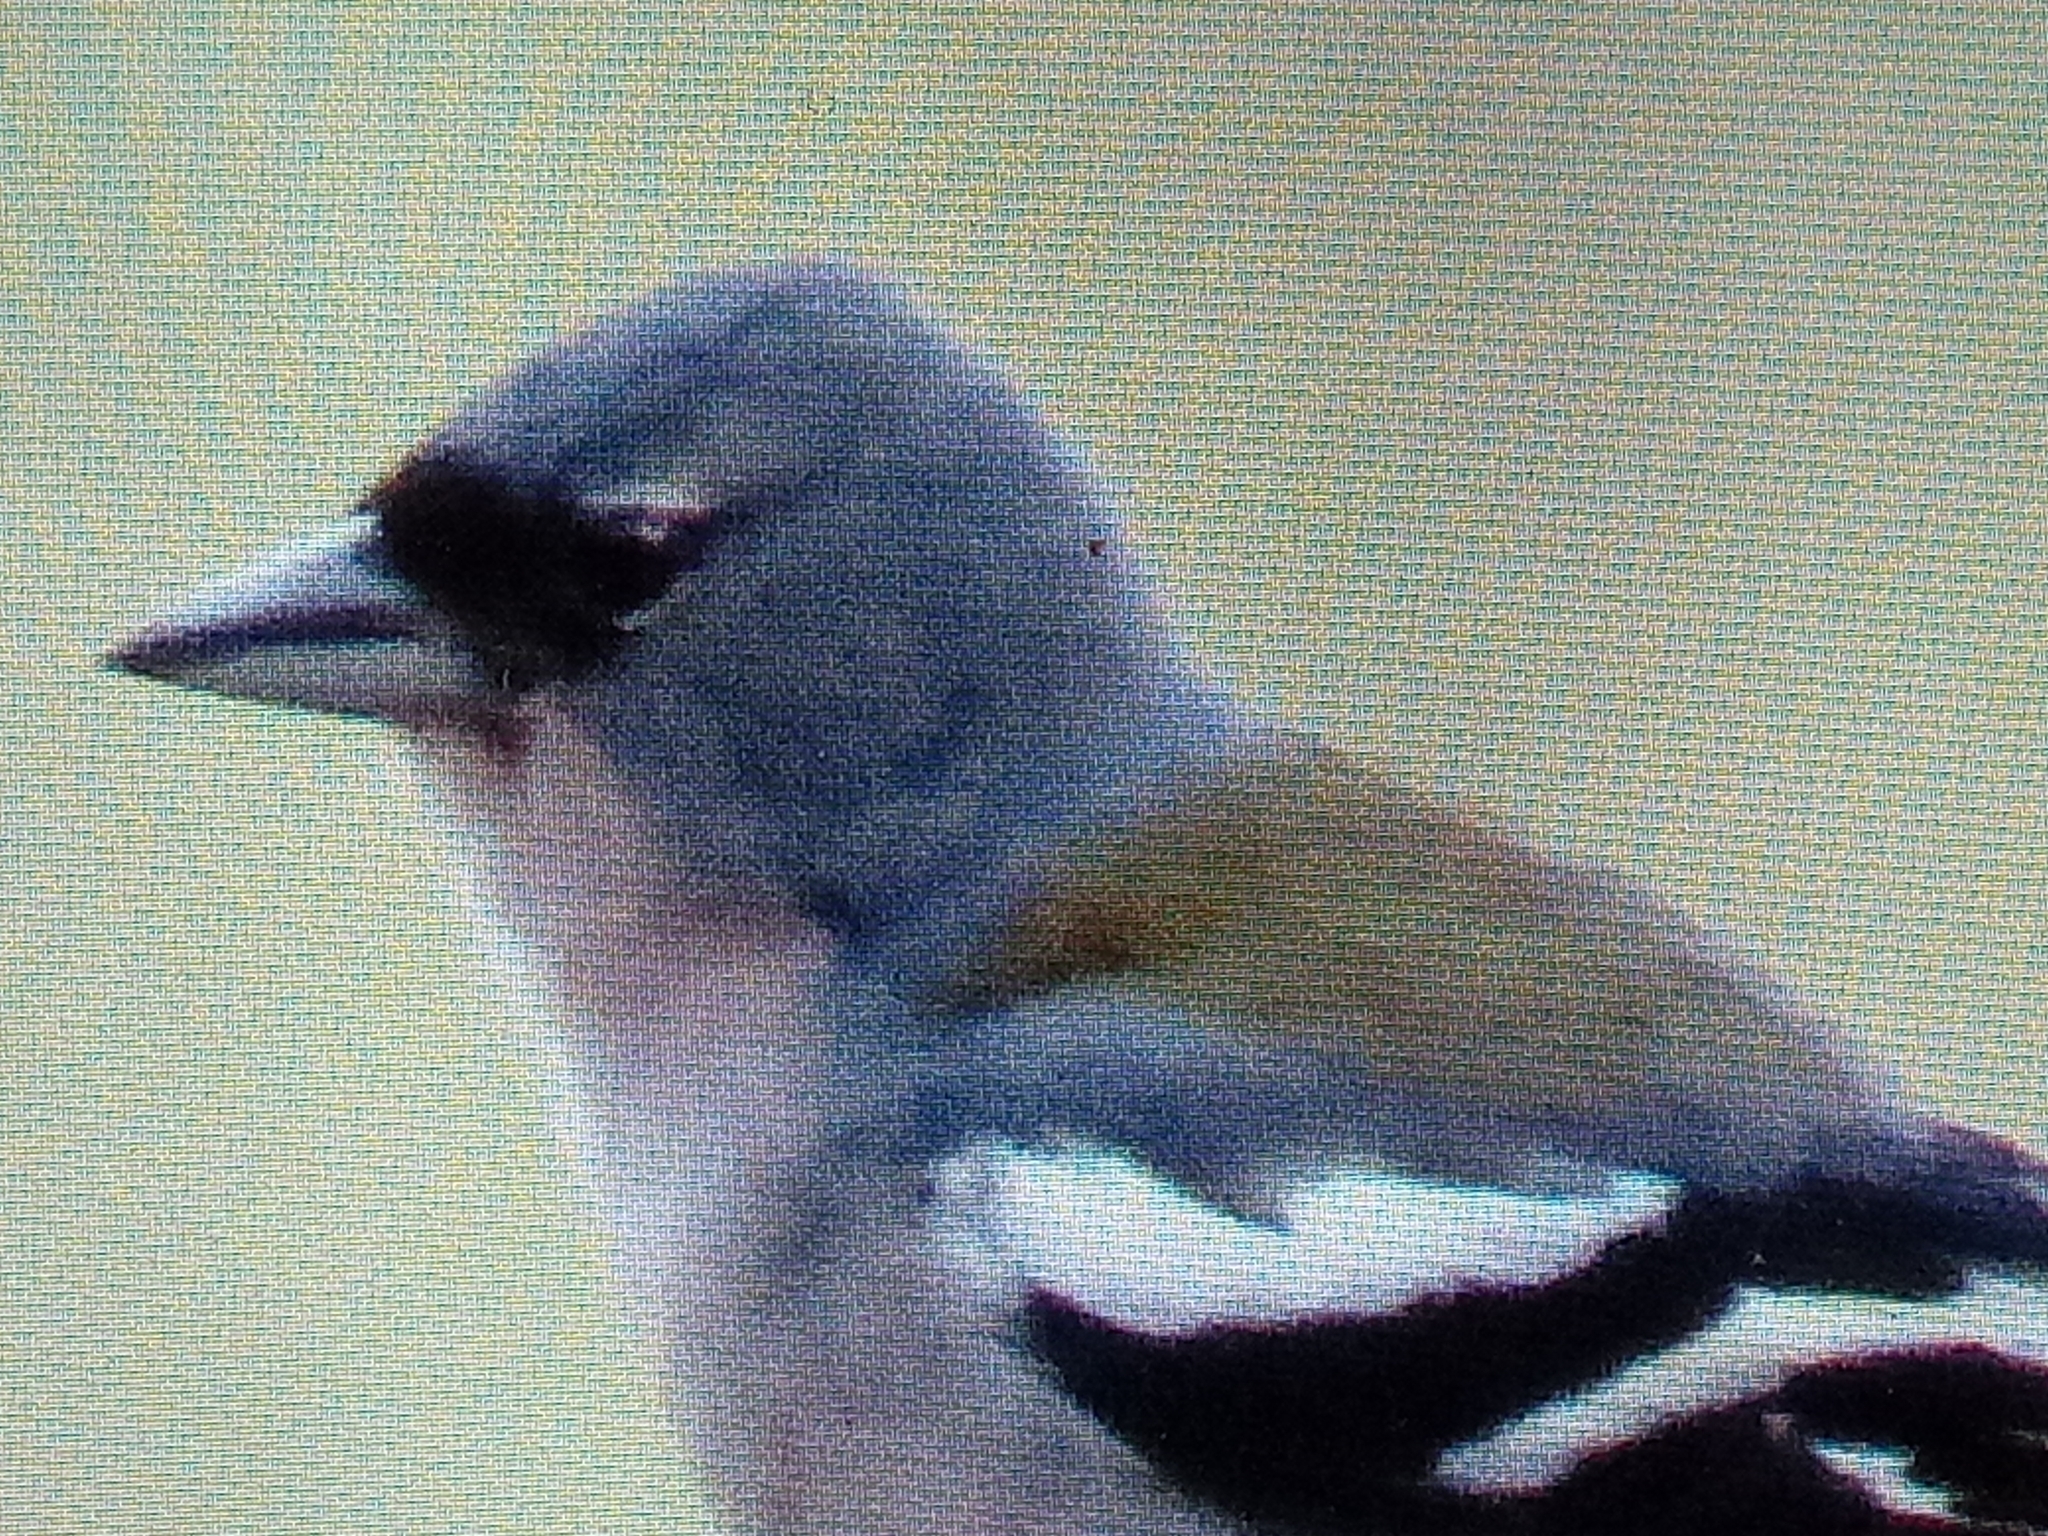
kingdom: Animalia
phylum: Chordata
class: Aves
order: Passeriformes
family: Fringillidae
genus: Fringilla
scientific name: Fringilla spodiogenys
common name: African chaffinch
